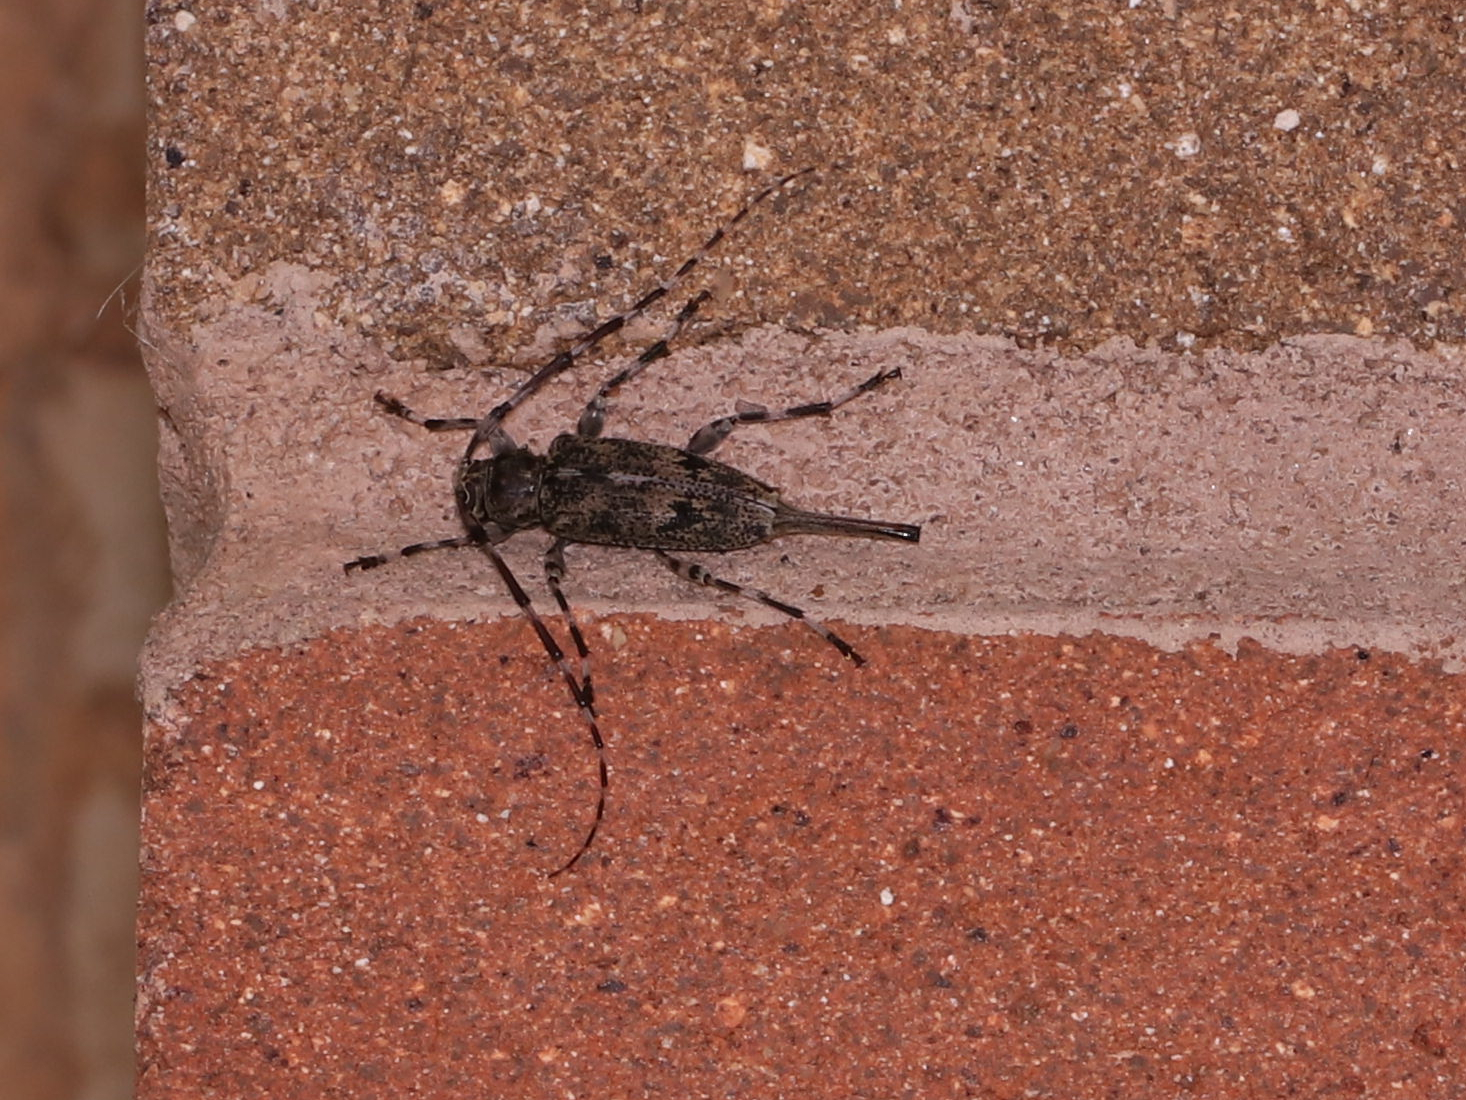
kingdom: Animalia
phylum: Arthropoda
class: Insecta
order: Coleoptera
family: Cerambycidae
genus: Graphisurus
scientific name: Graphisurus fasciatus
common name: Banded graphisurus
